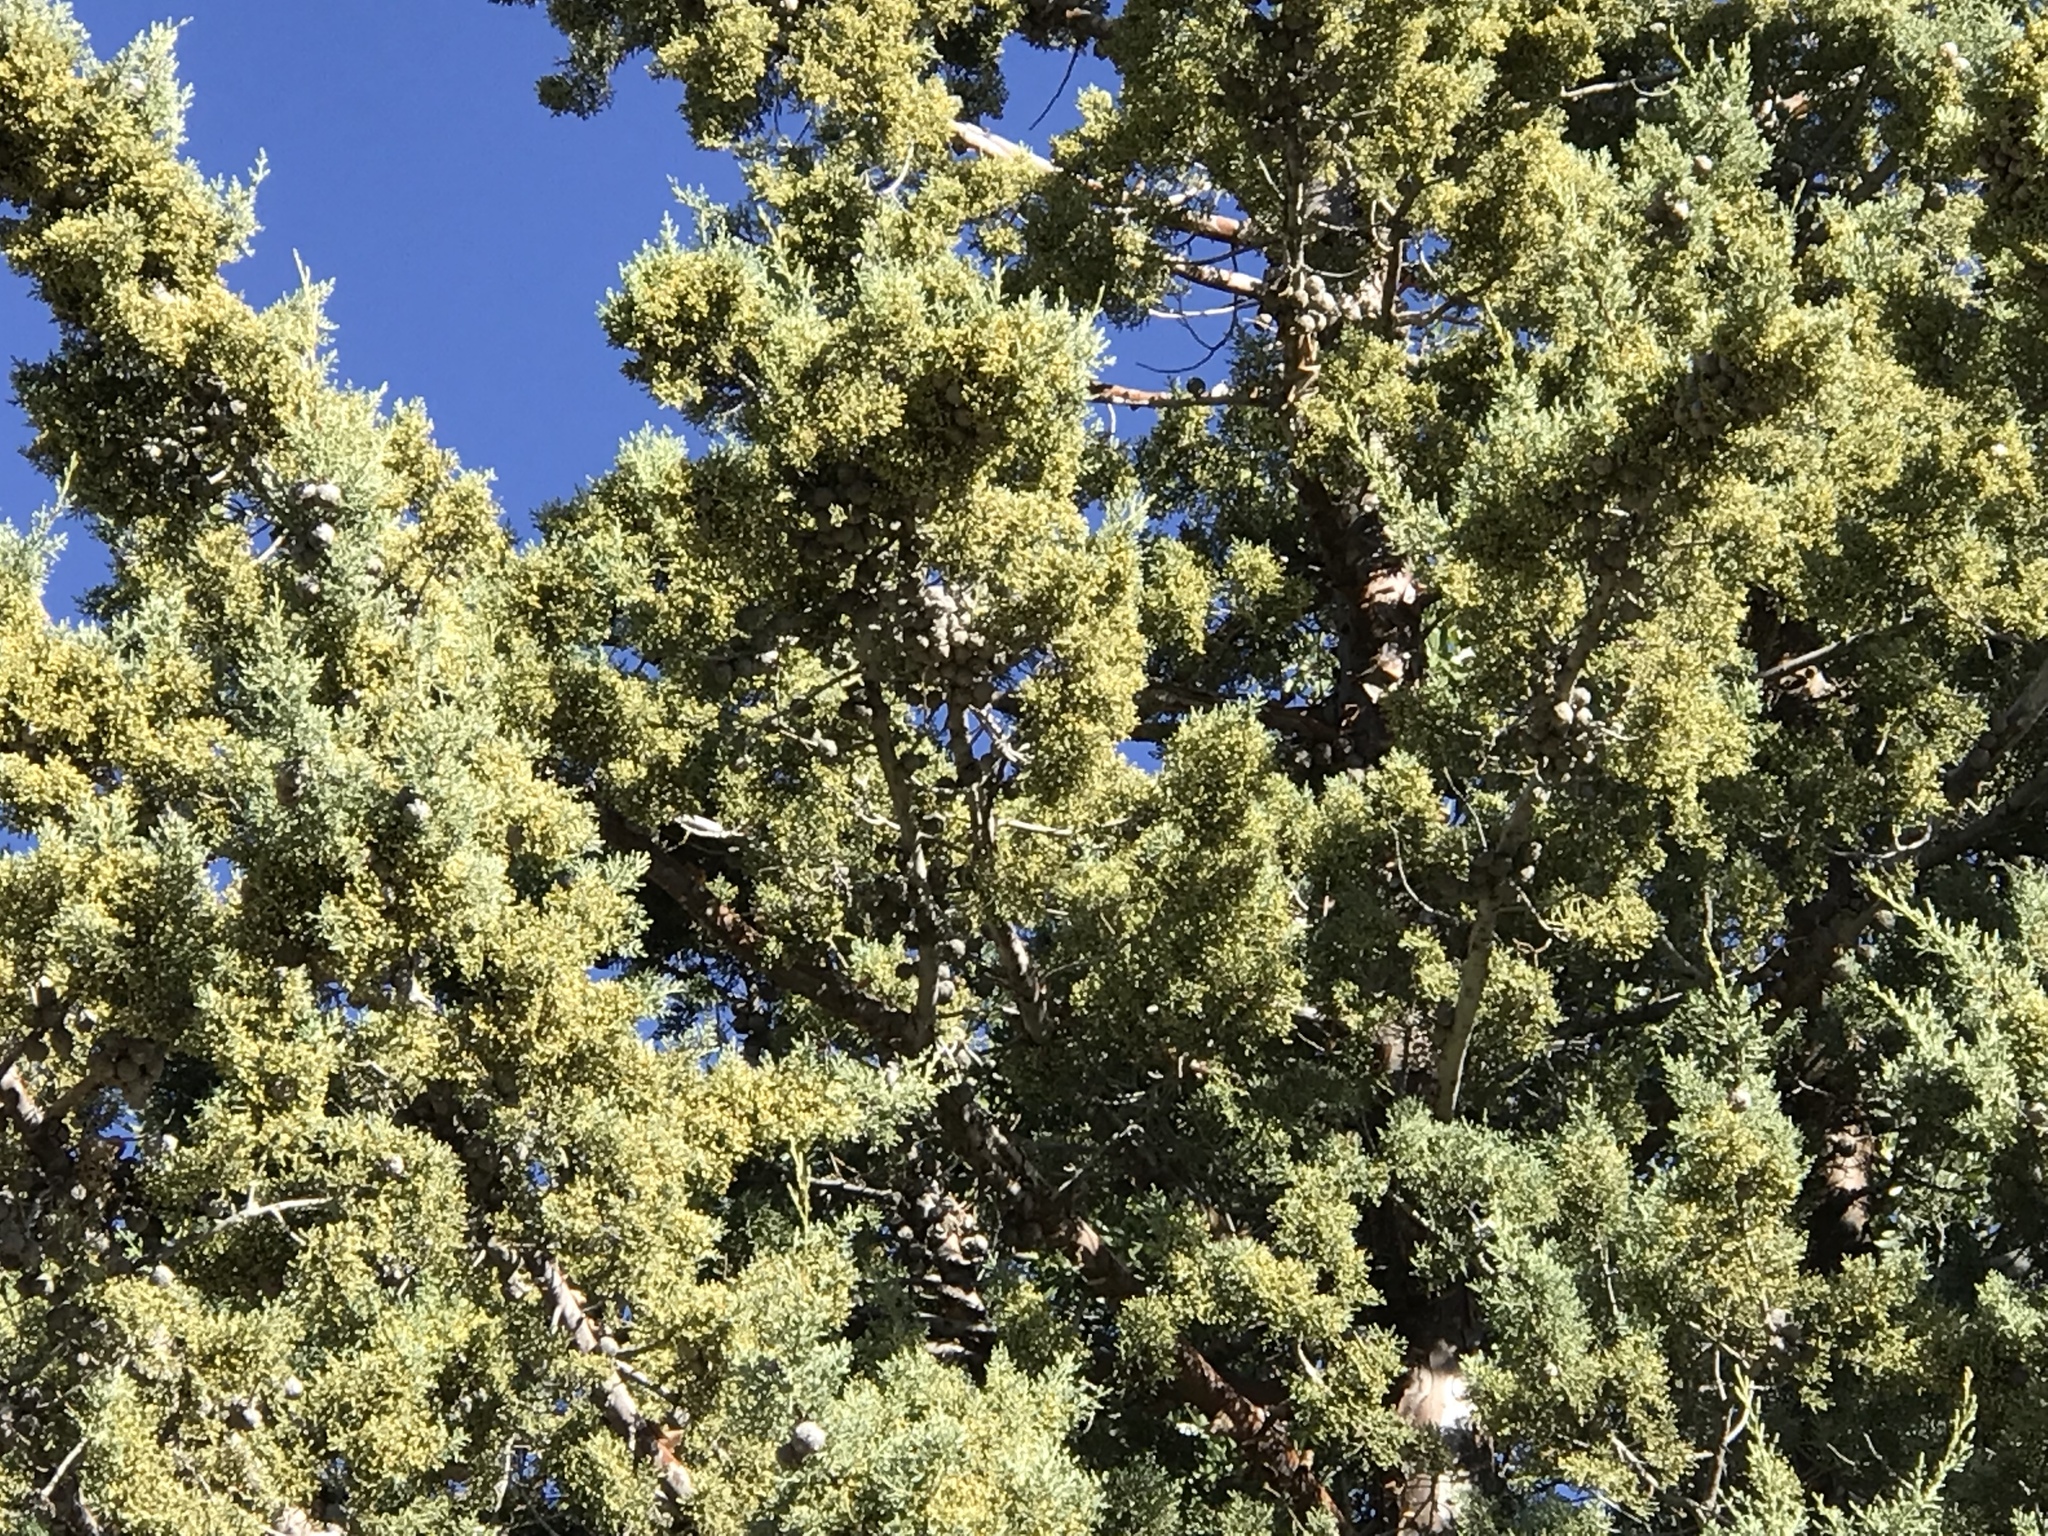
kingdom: Plantae
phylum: Tracheophyta
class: Pinopsida
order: Pinales
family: Cupressaceae
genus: Cupressus
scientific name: Cupressus arizonica
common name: Arizona cypress
